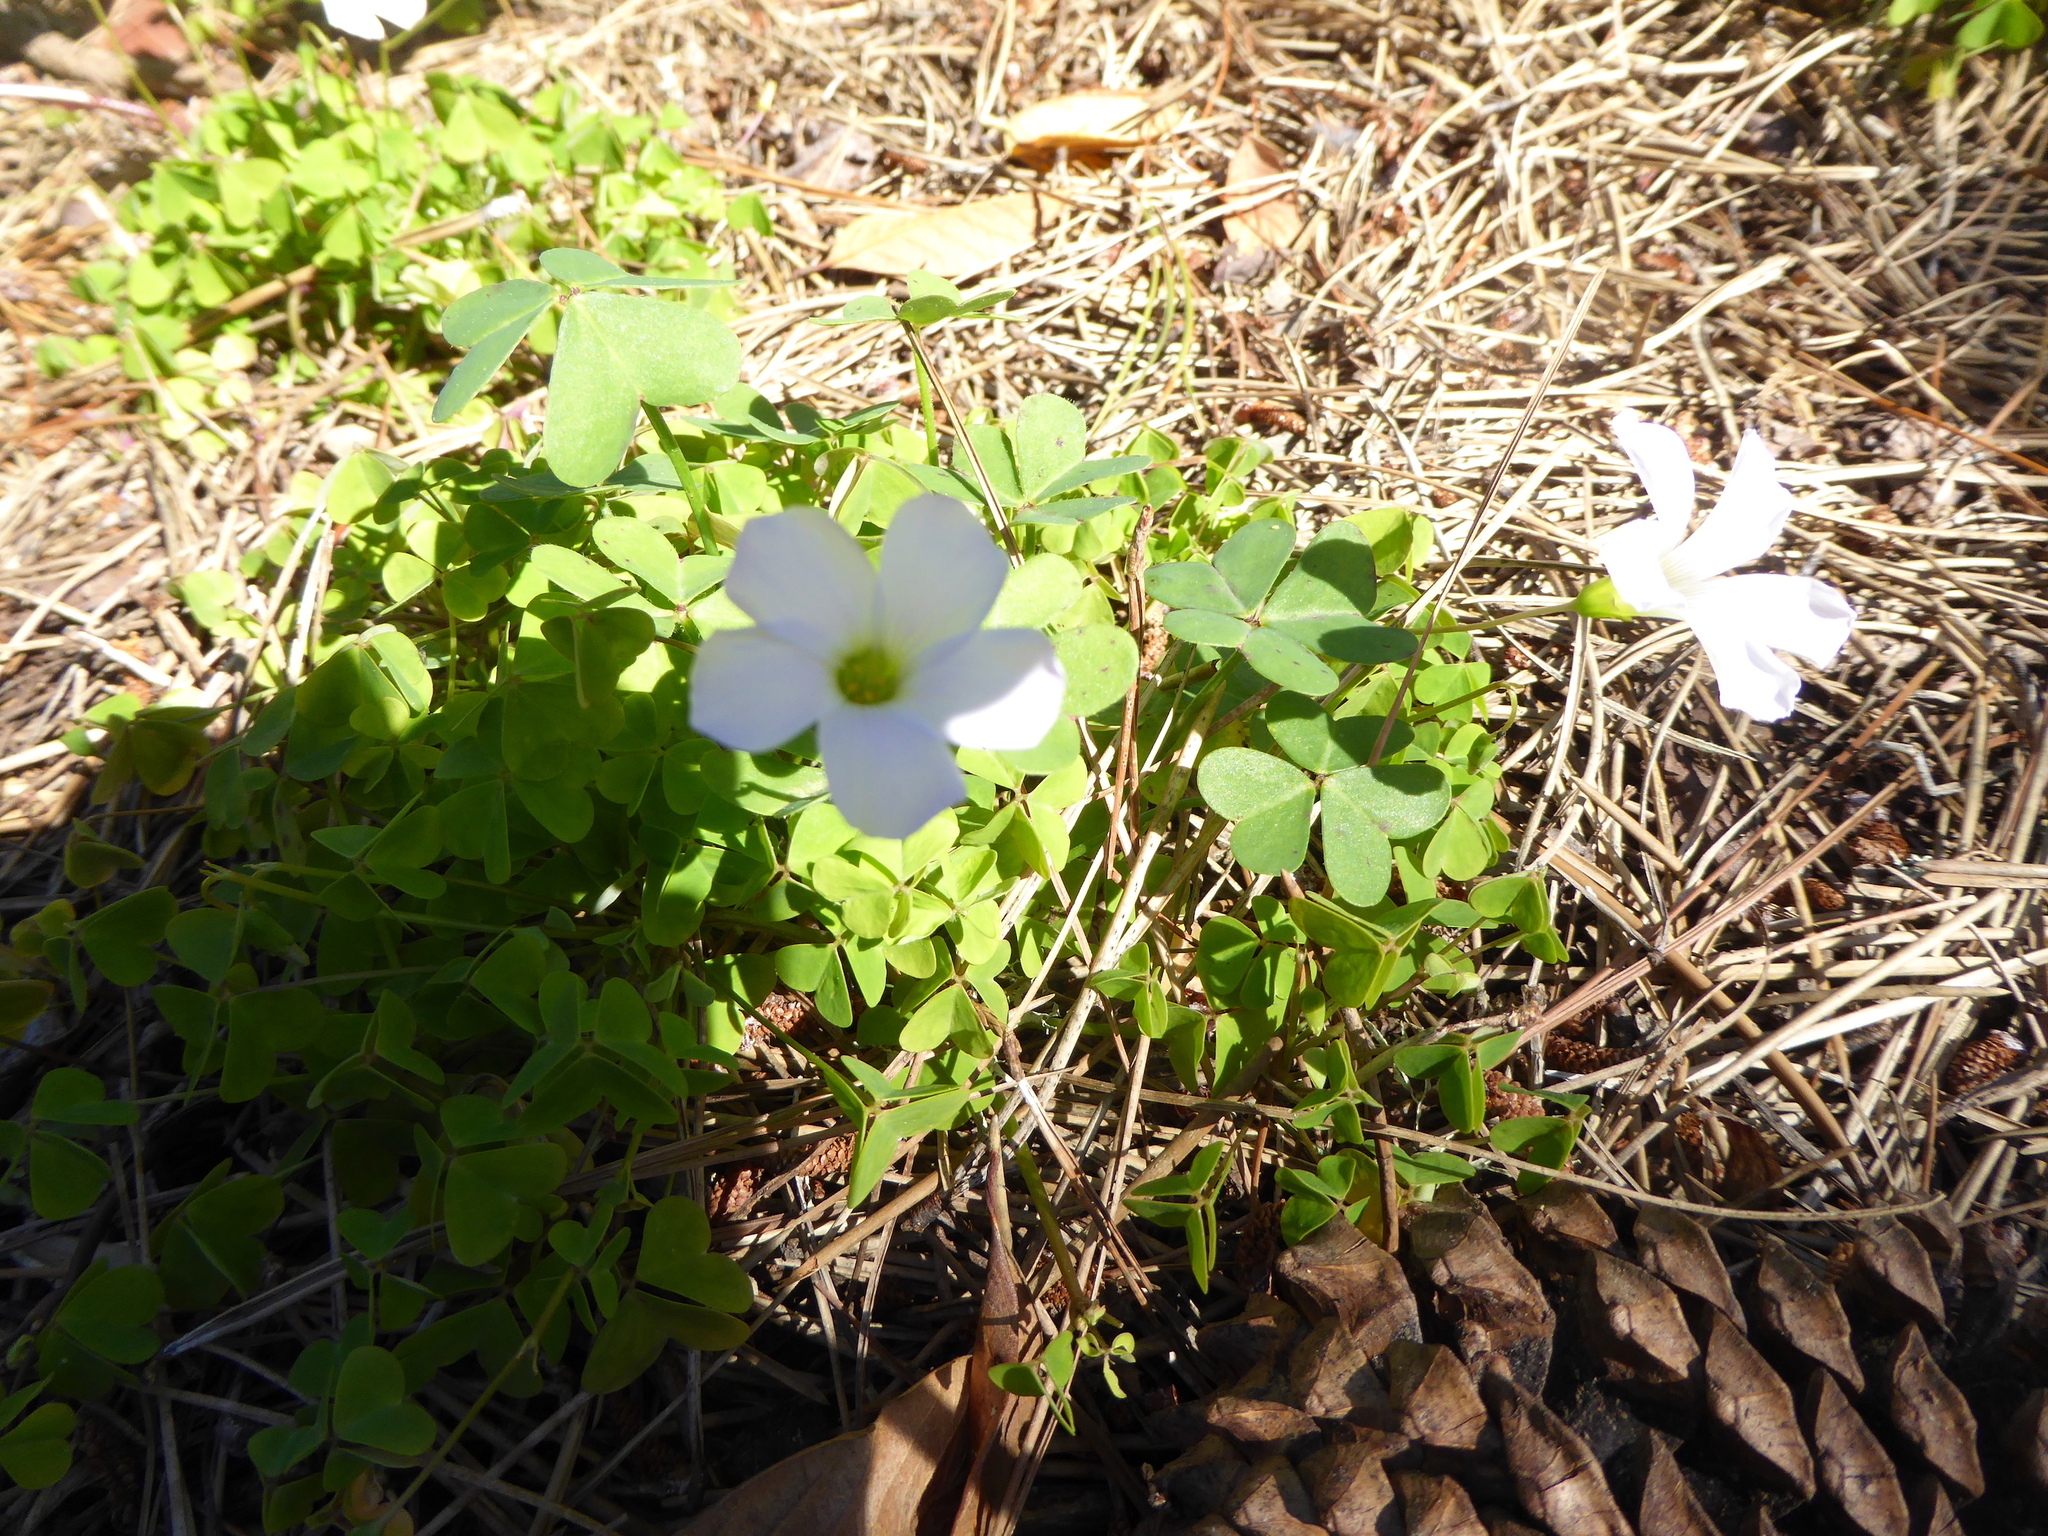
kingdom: Plantae
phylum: Tracheophyta
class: Magnoliopsida
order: Oxalidales
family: Oxalidaceae
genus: Oxalis
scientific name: Oxalis incarnata
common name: Pale pink-sorrel
